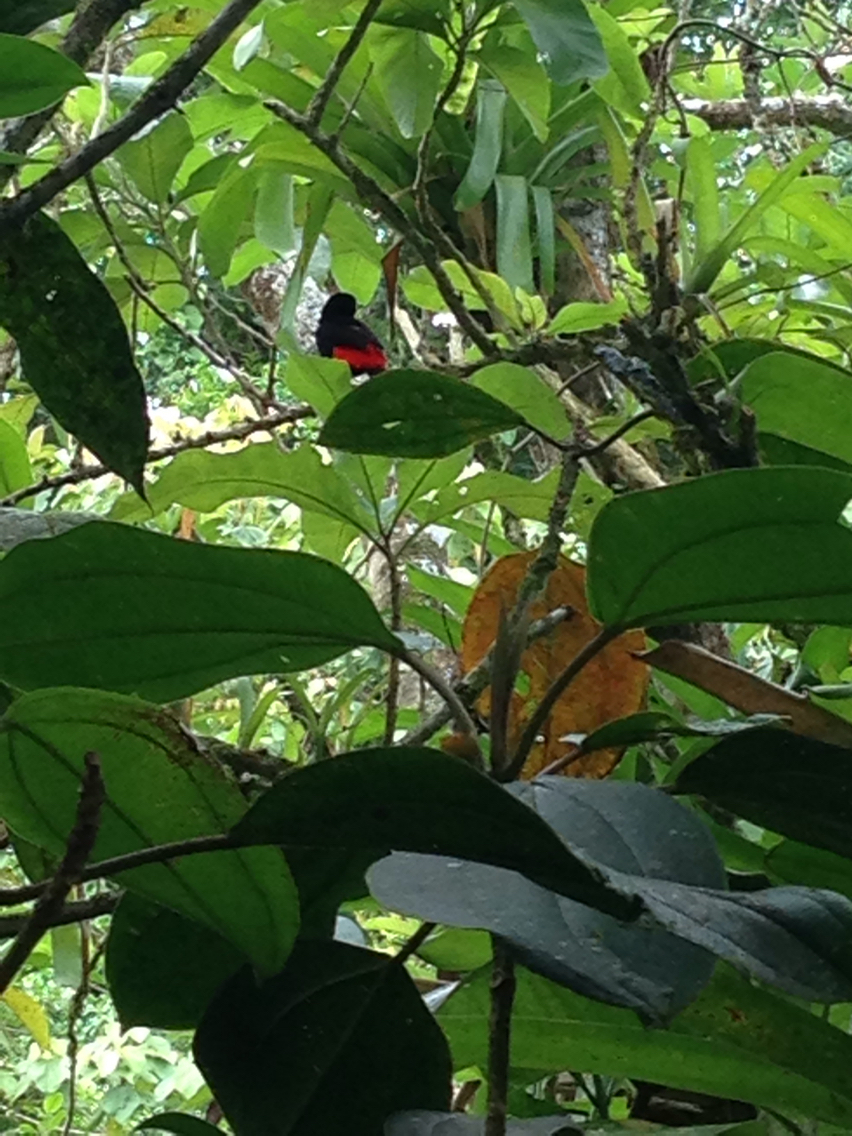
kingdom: Animalia
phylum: Chordata
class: Aves
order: Passeriformes
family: Thraupidae
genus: Ramphocelus
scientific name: Ramphocelus passerinii
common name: Passerini's tanager
